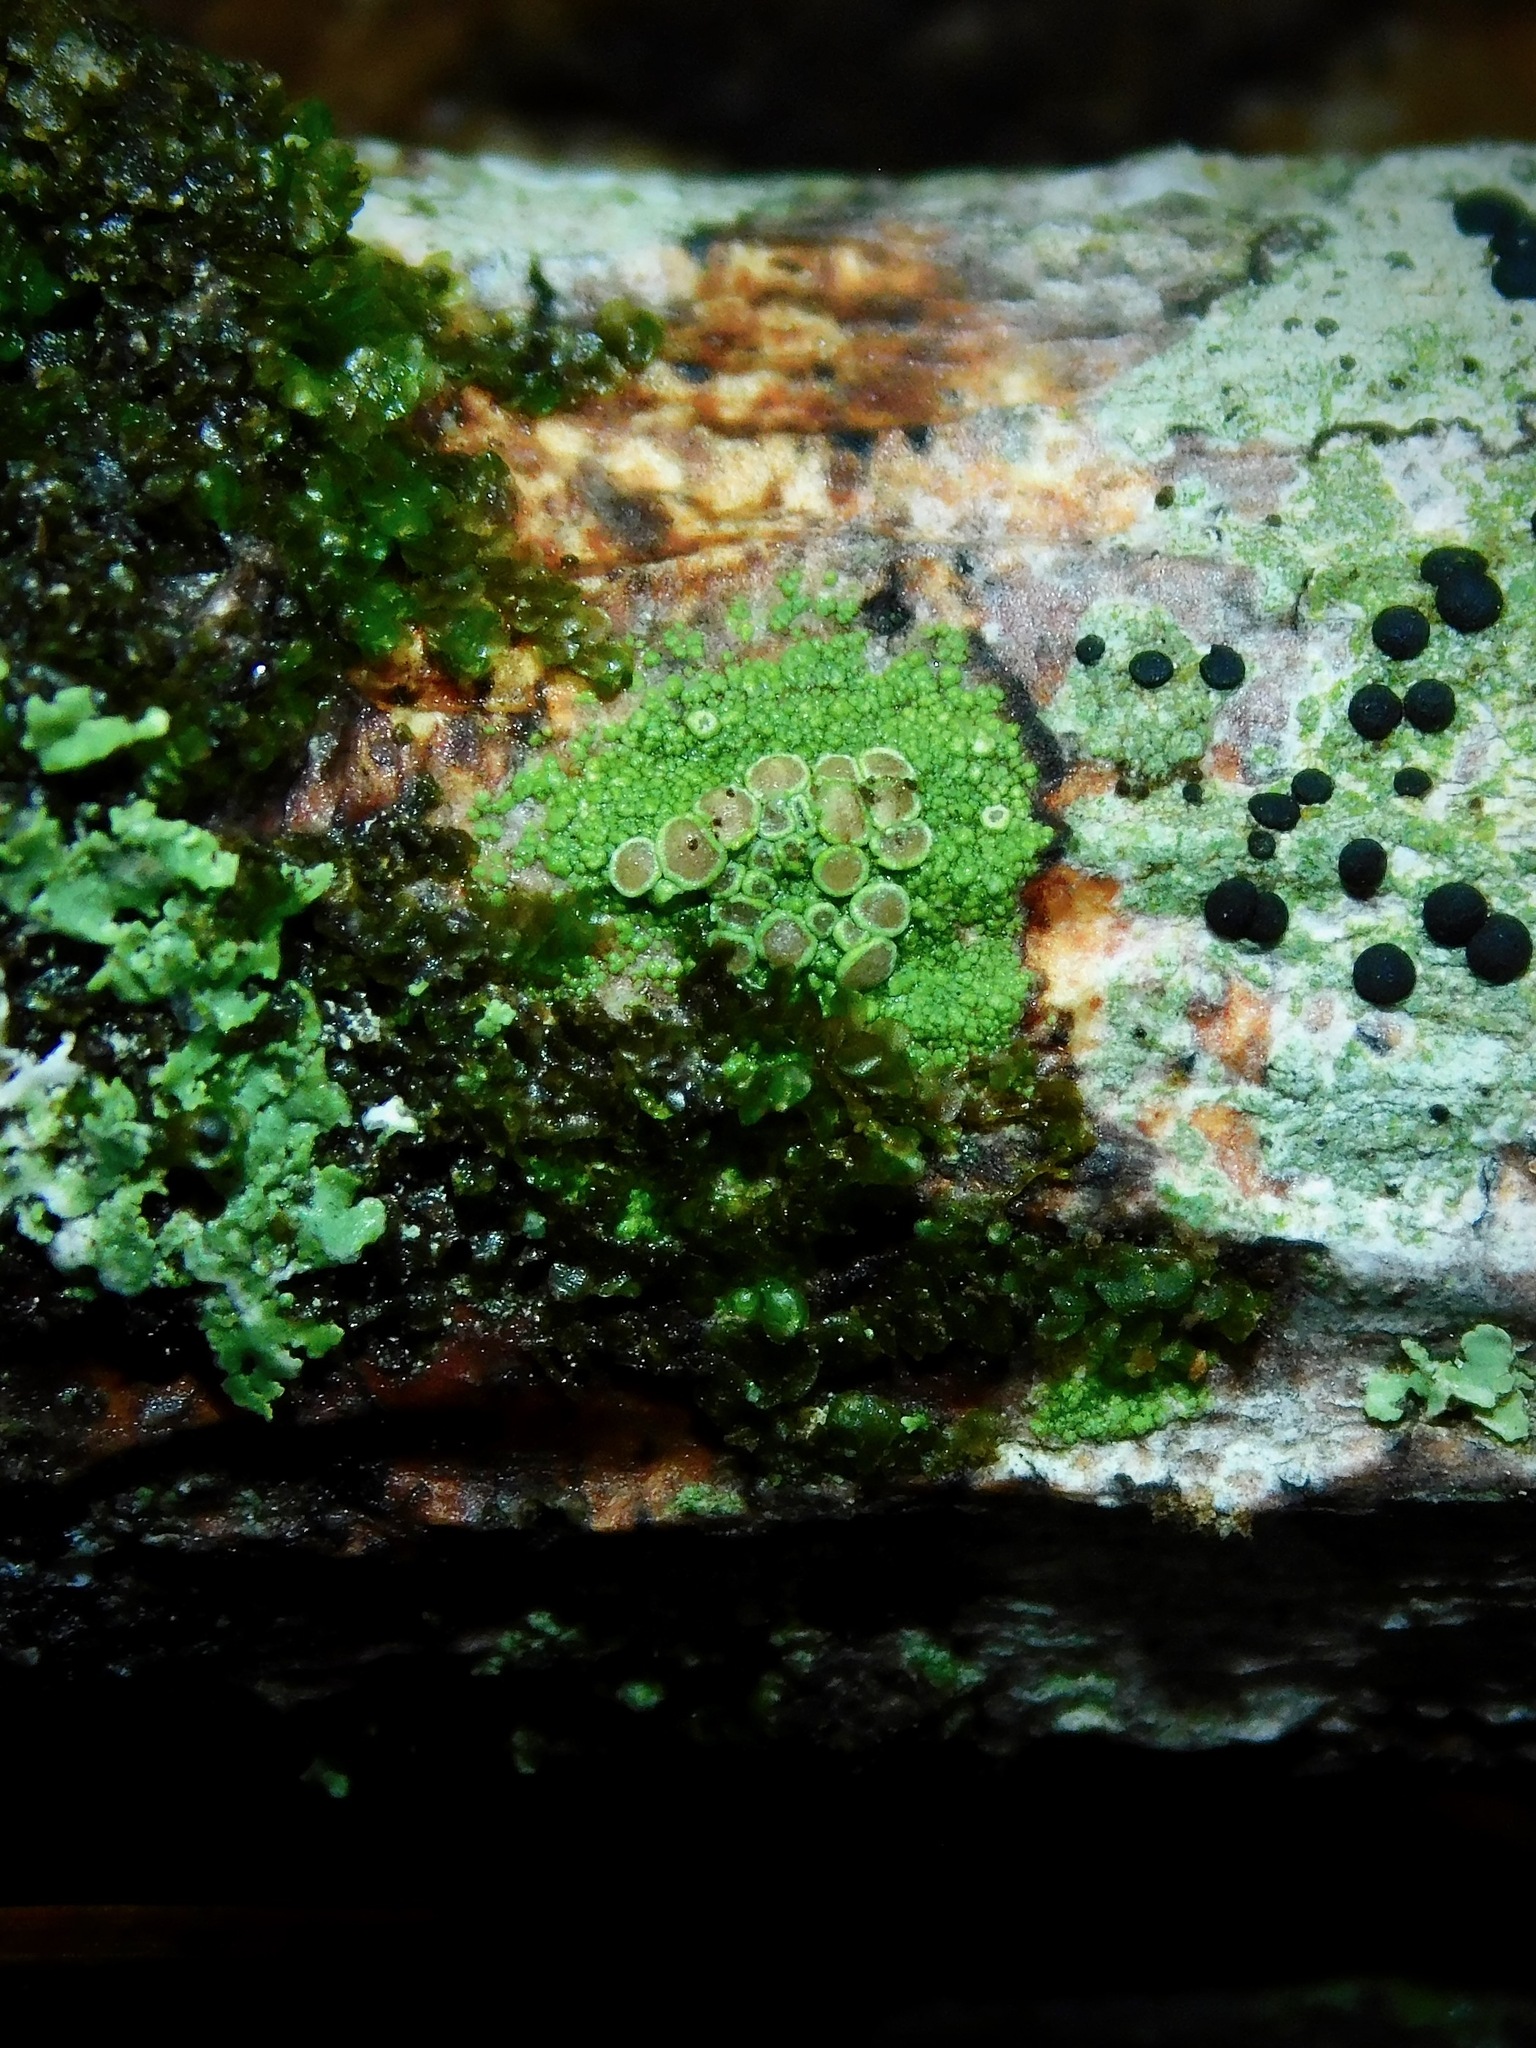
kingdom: Fungi
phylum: Ascomycota
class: Lecanoromycetes
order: Umbilicariales
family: Fuscideaceae
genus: Maronea
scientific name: Maronea polyphaea
